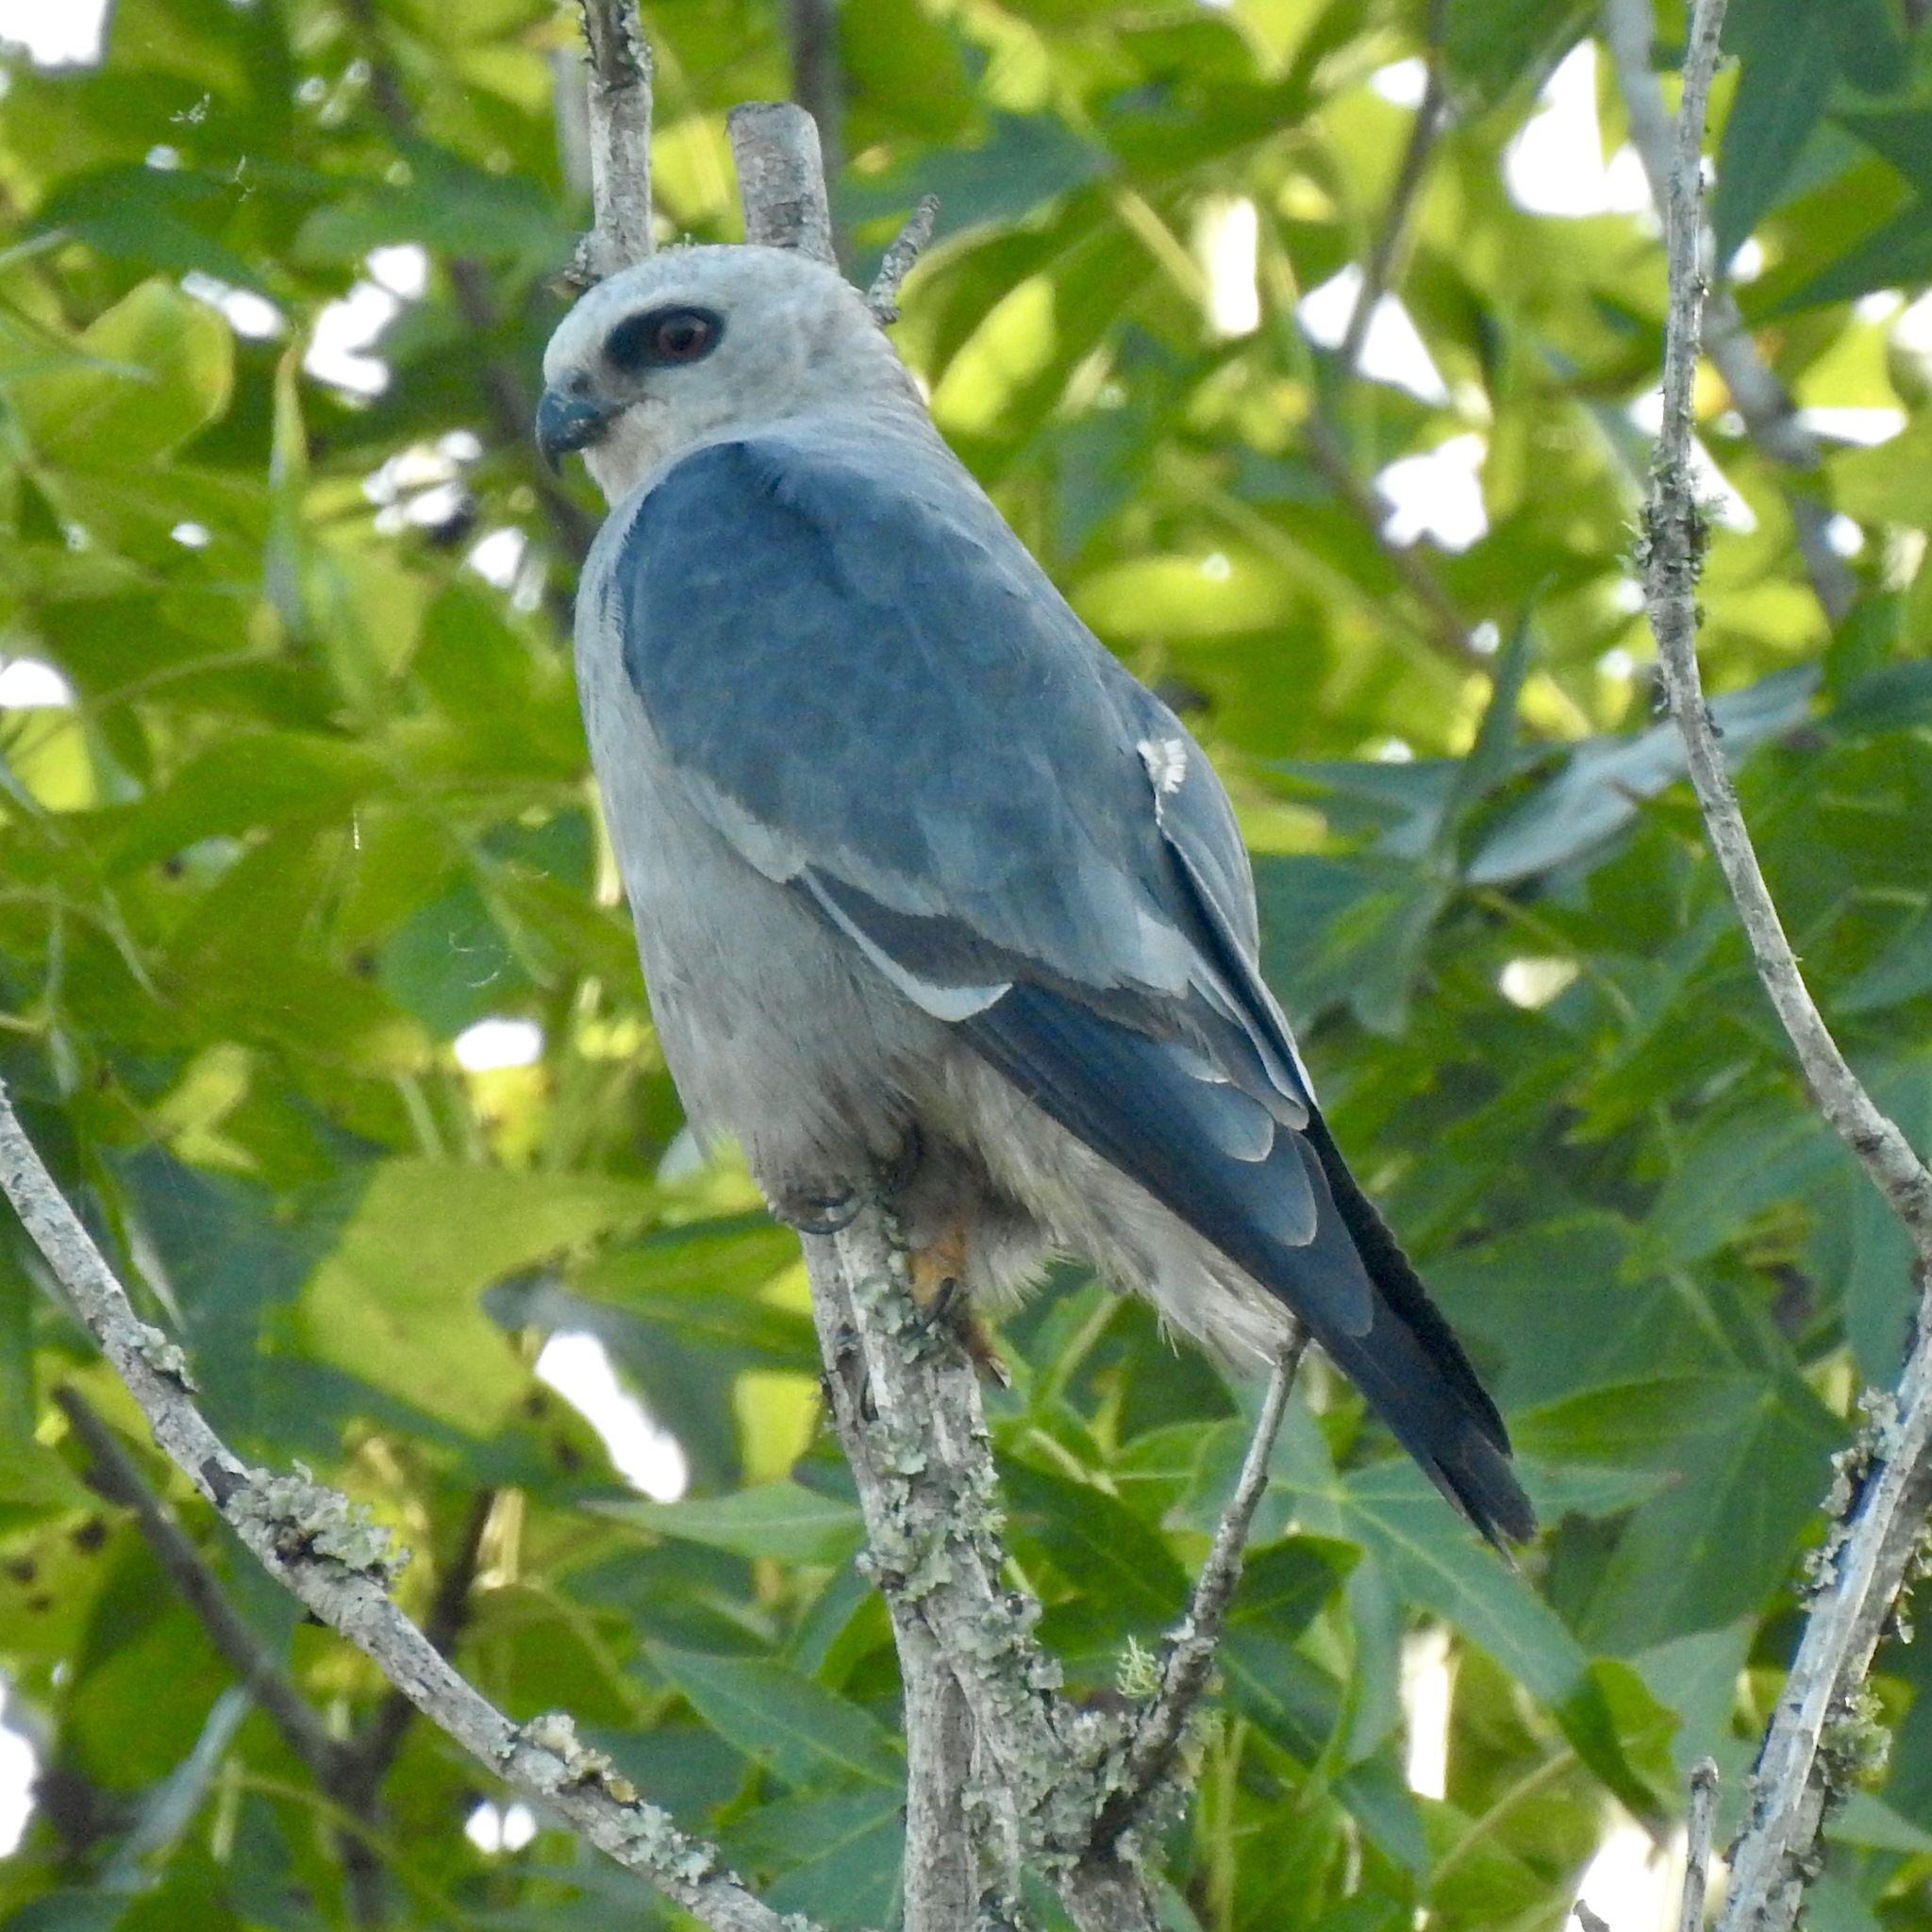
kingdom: Animalia
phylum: Chordata
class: Aves
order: Accipitriformes
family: Accipitridae
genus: Ictinia
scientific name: Ictinia mississippiensis
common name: Mississippi kite
